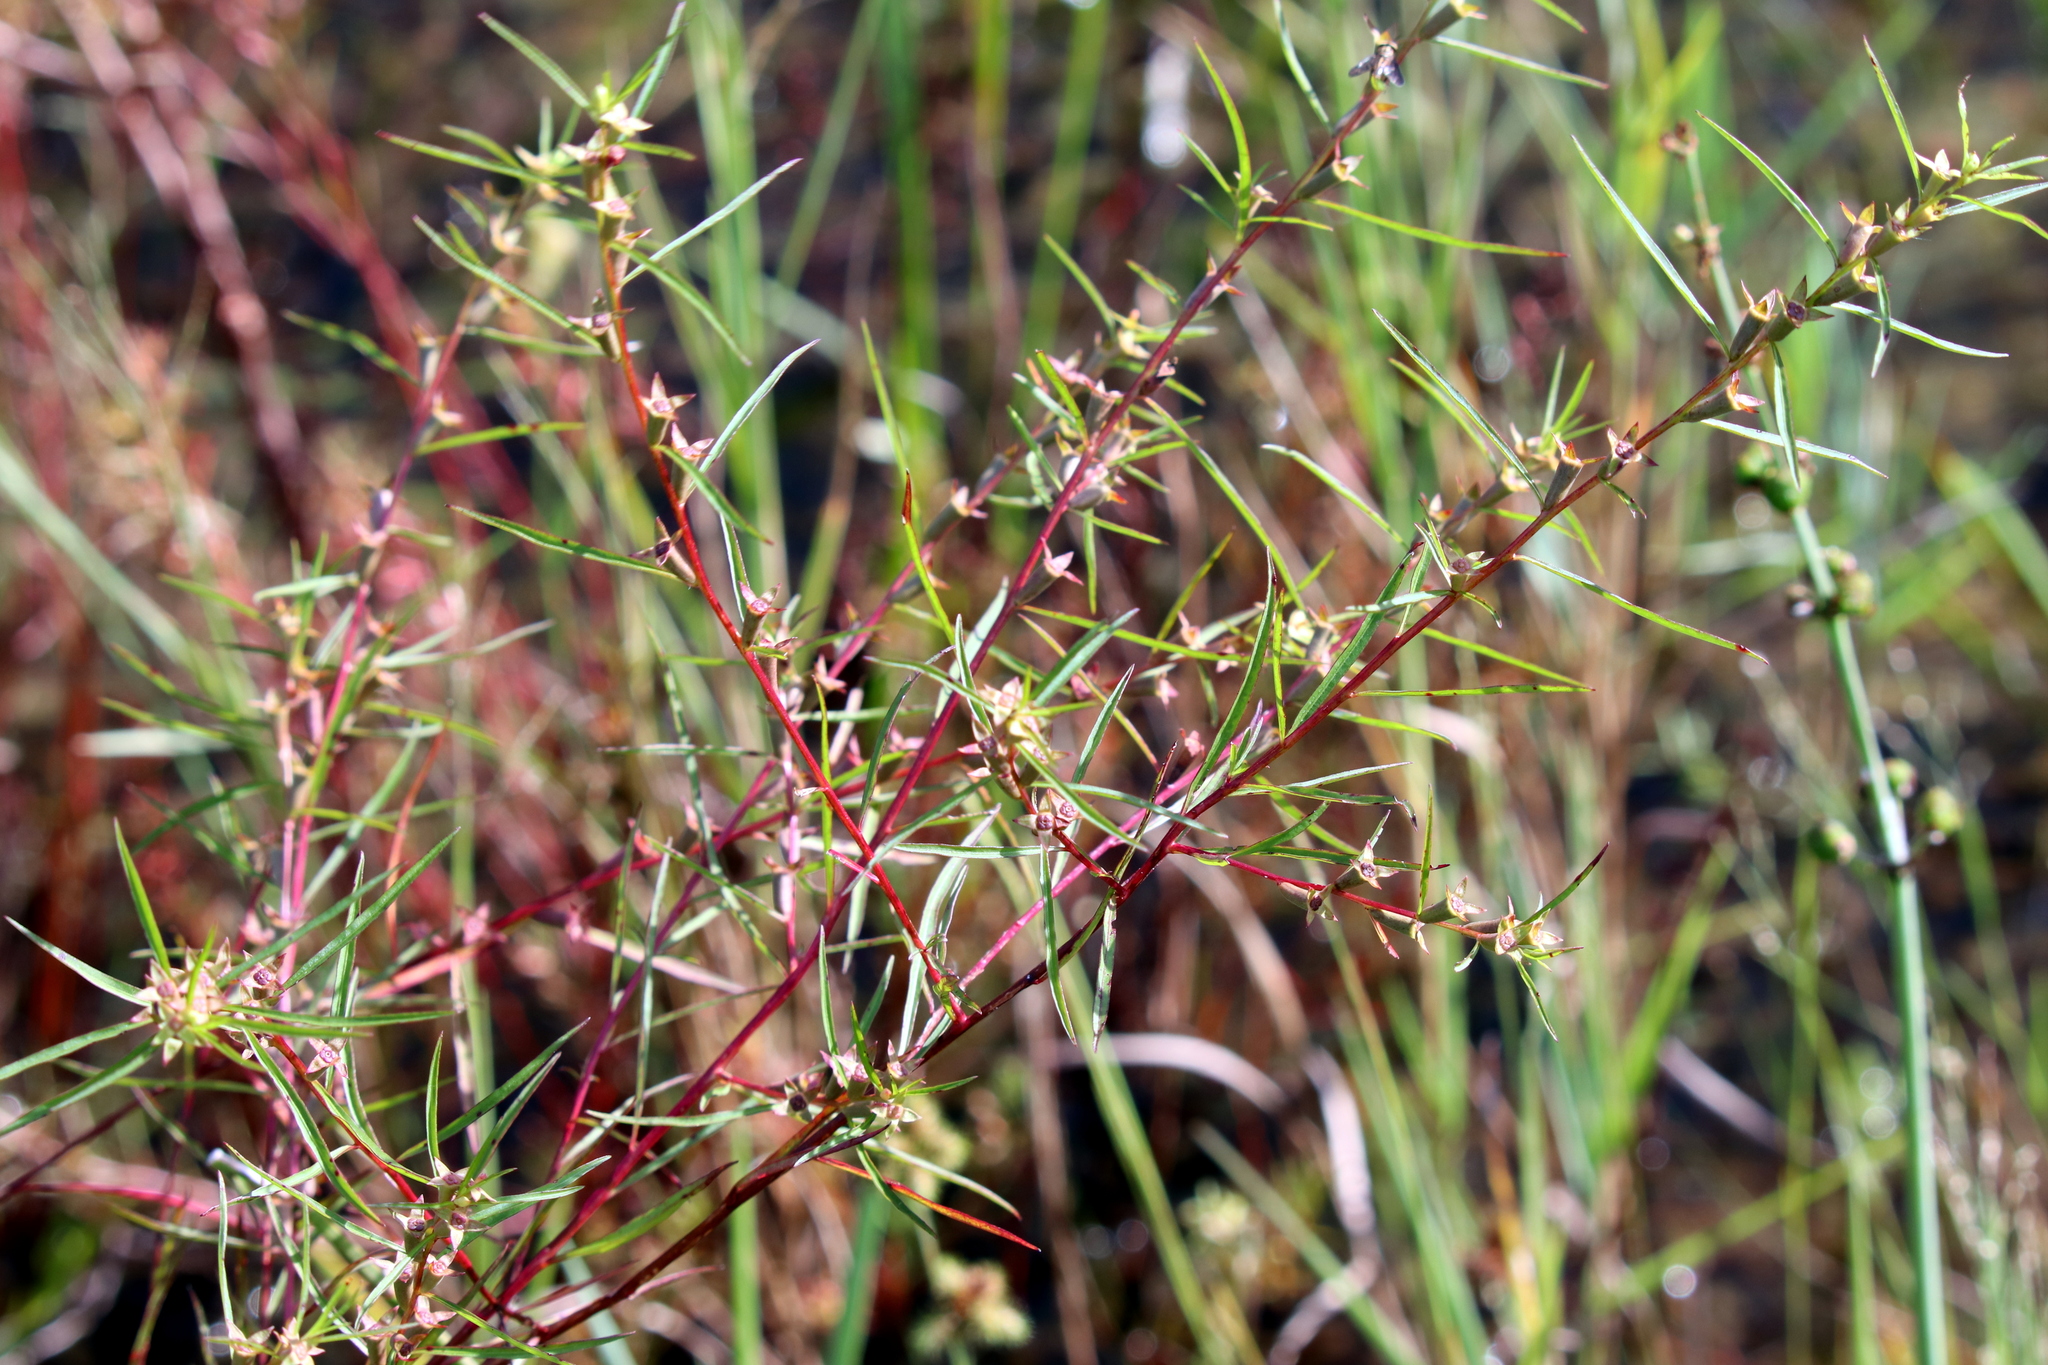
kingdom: Plantae
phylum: Tracheophyta
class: Magnoliopsida
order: Myrtales
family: Onagraceae
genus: Ludwigia
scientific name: Ludwigia linearis
